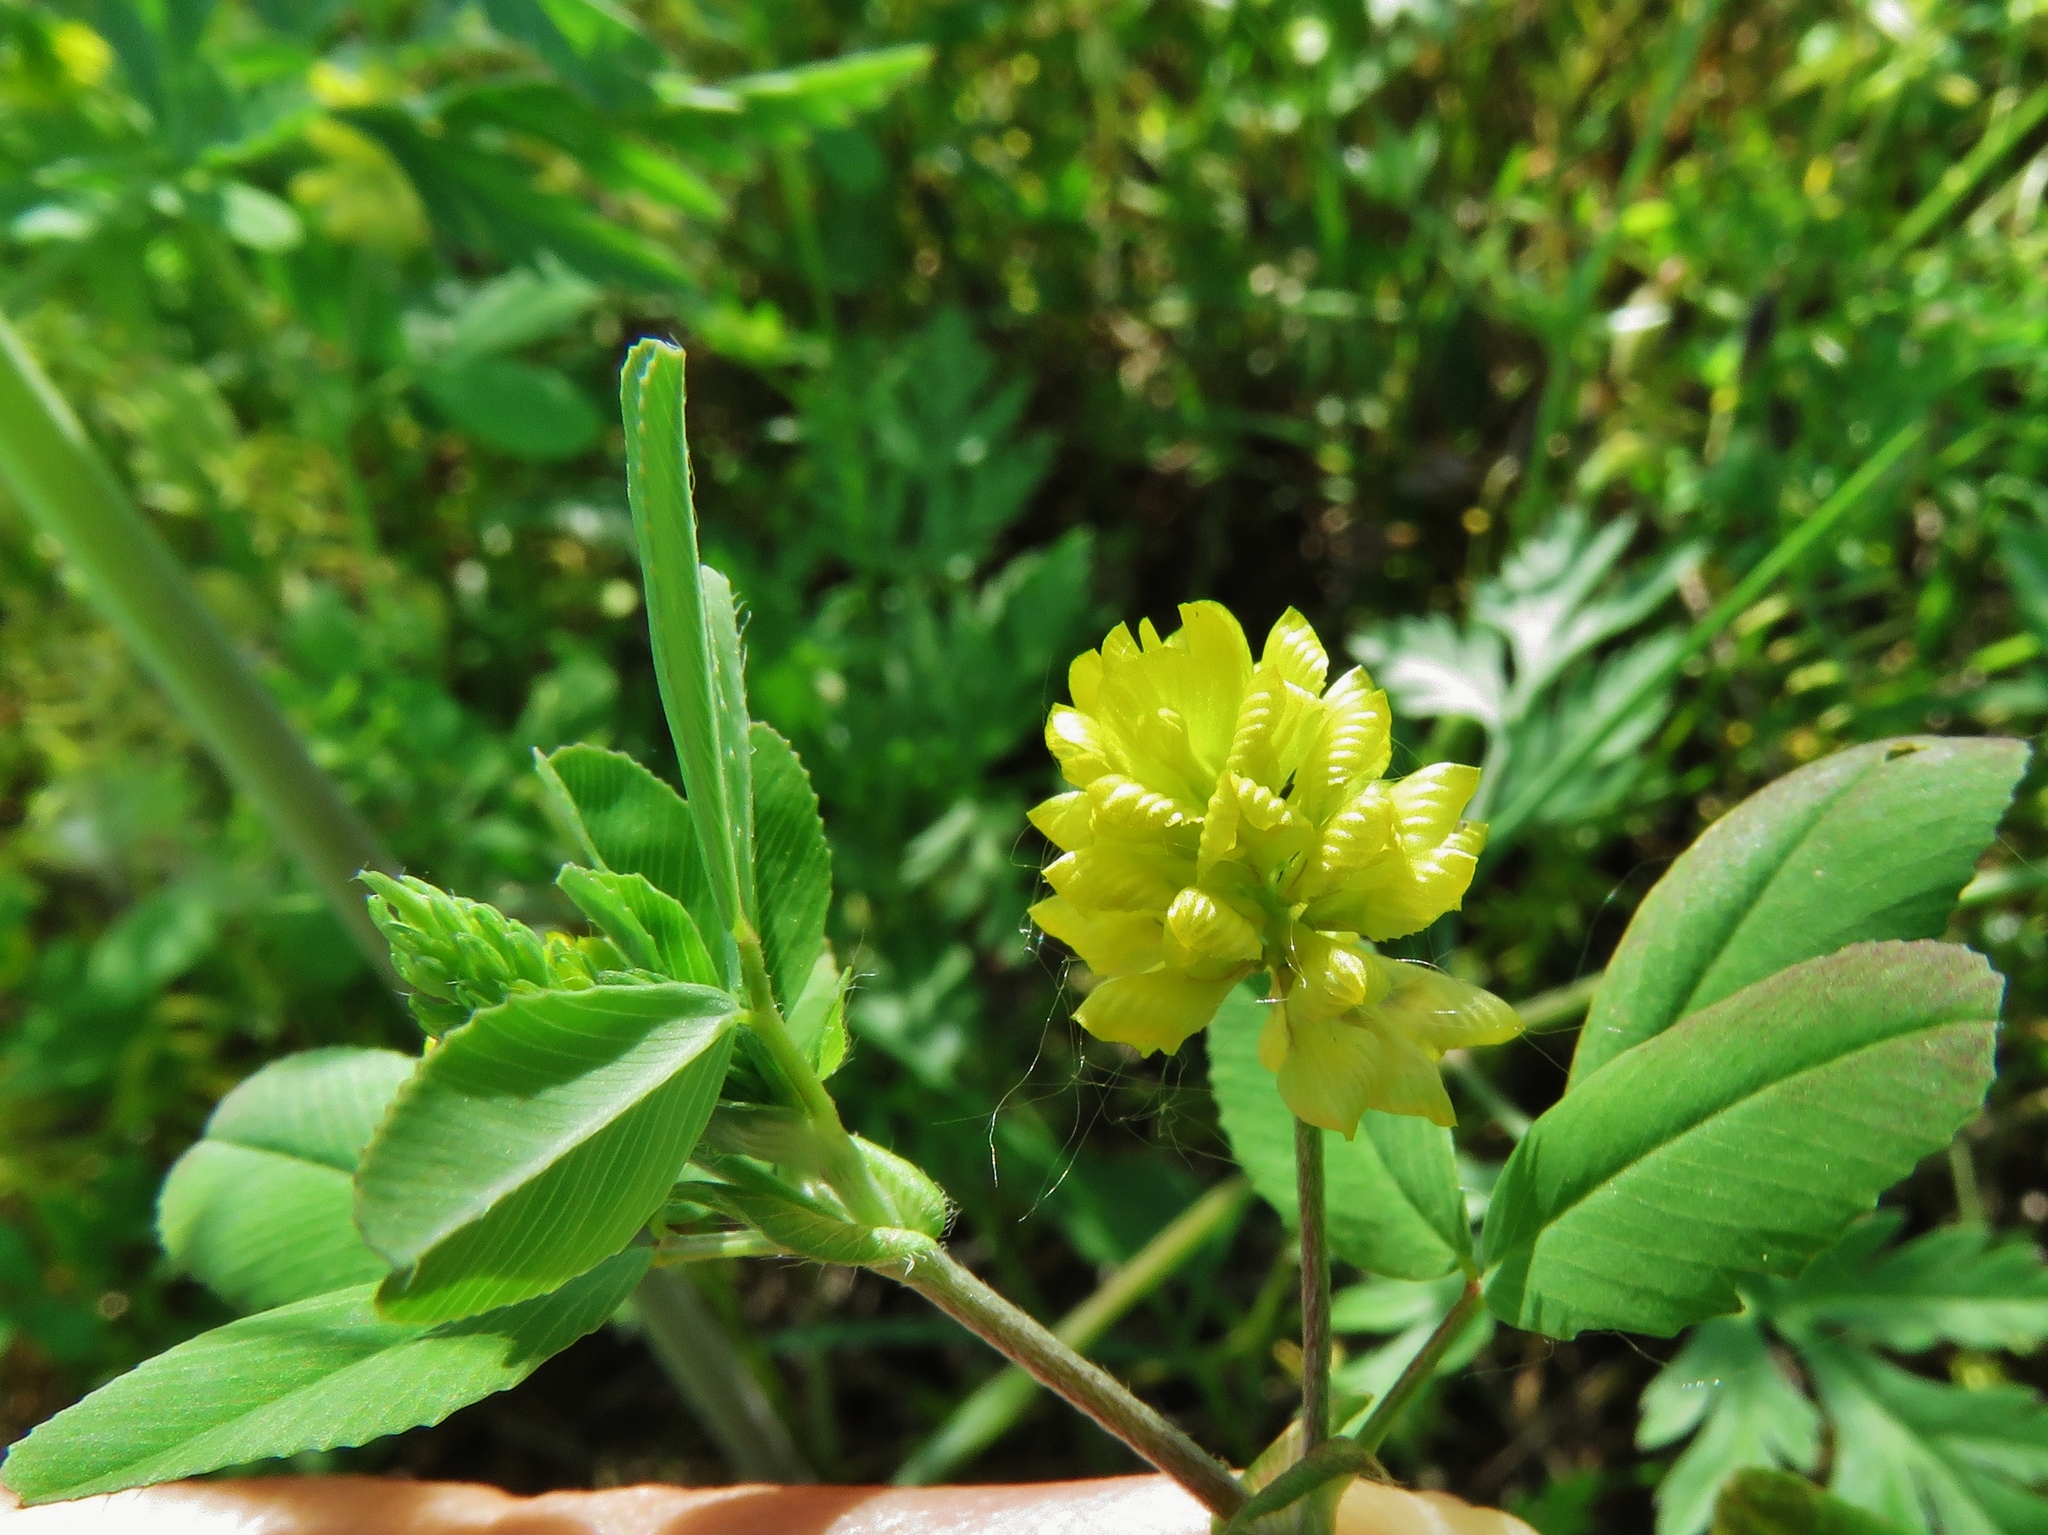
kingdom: Plantae
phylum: Tracheophyta
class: Magnoliopsida
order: Fabales
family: Fabaceae
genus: Trifolium
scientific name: Trifolium campestre
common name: Field clover
